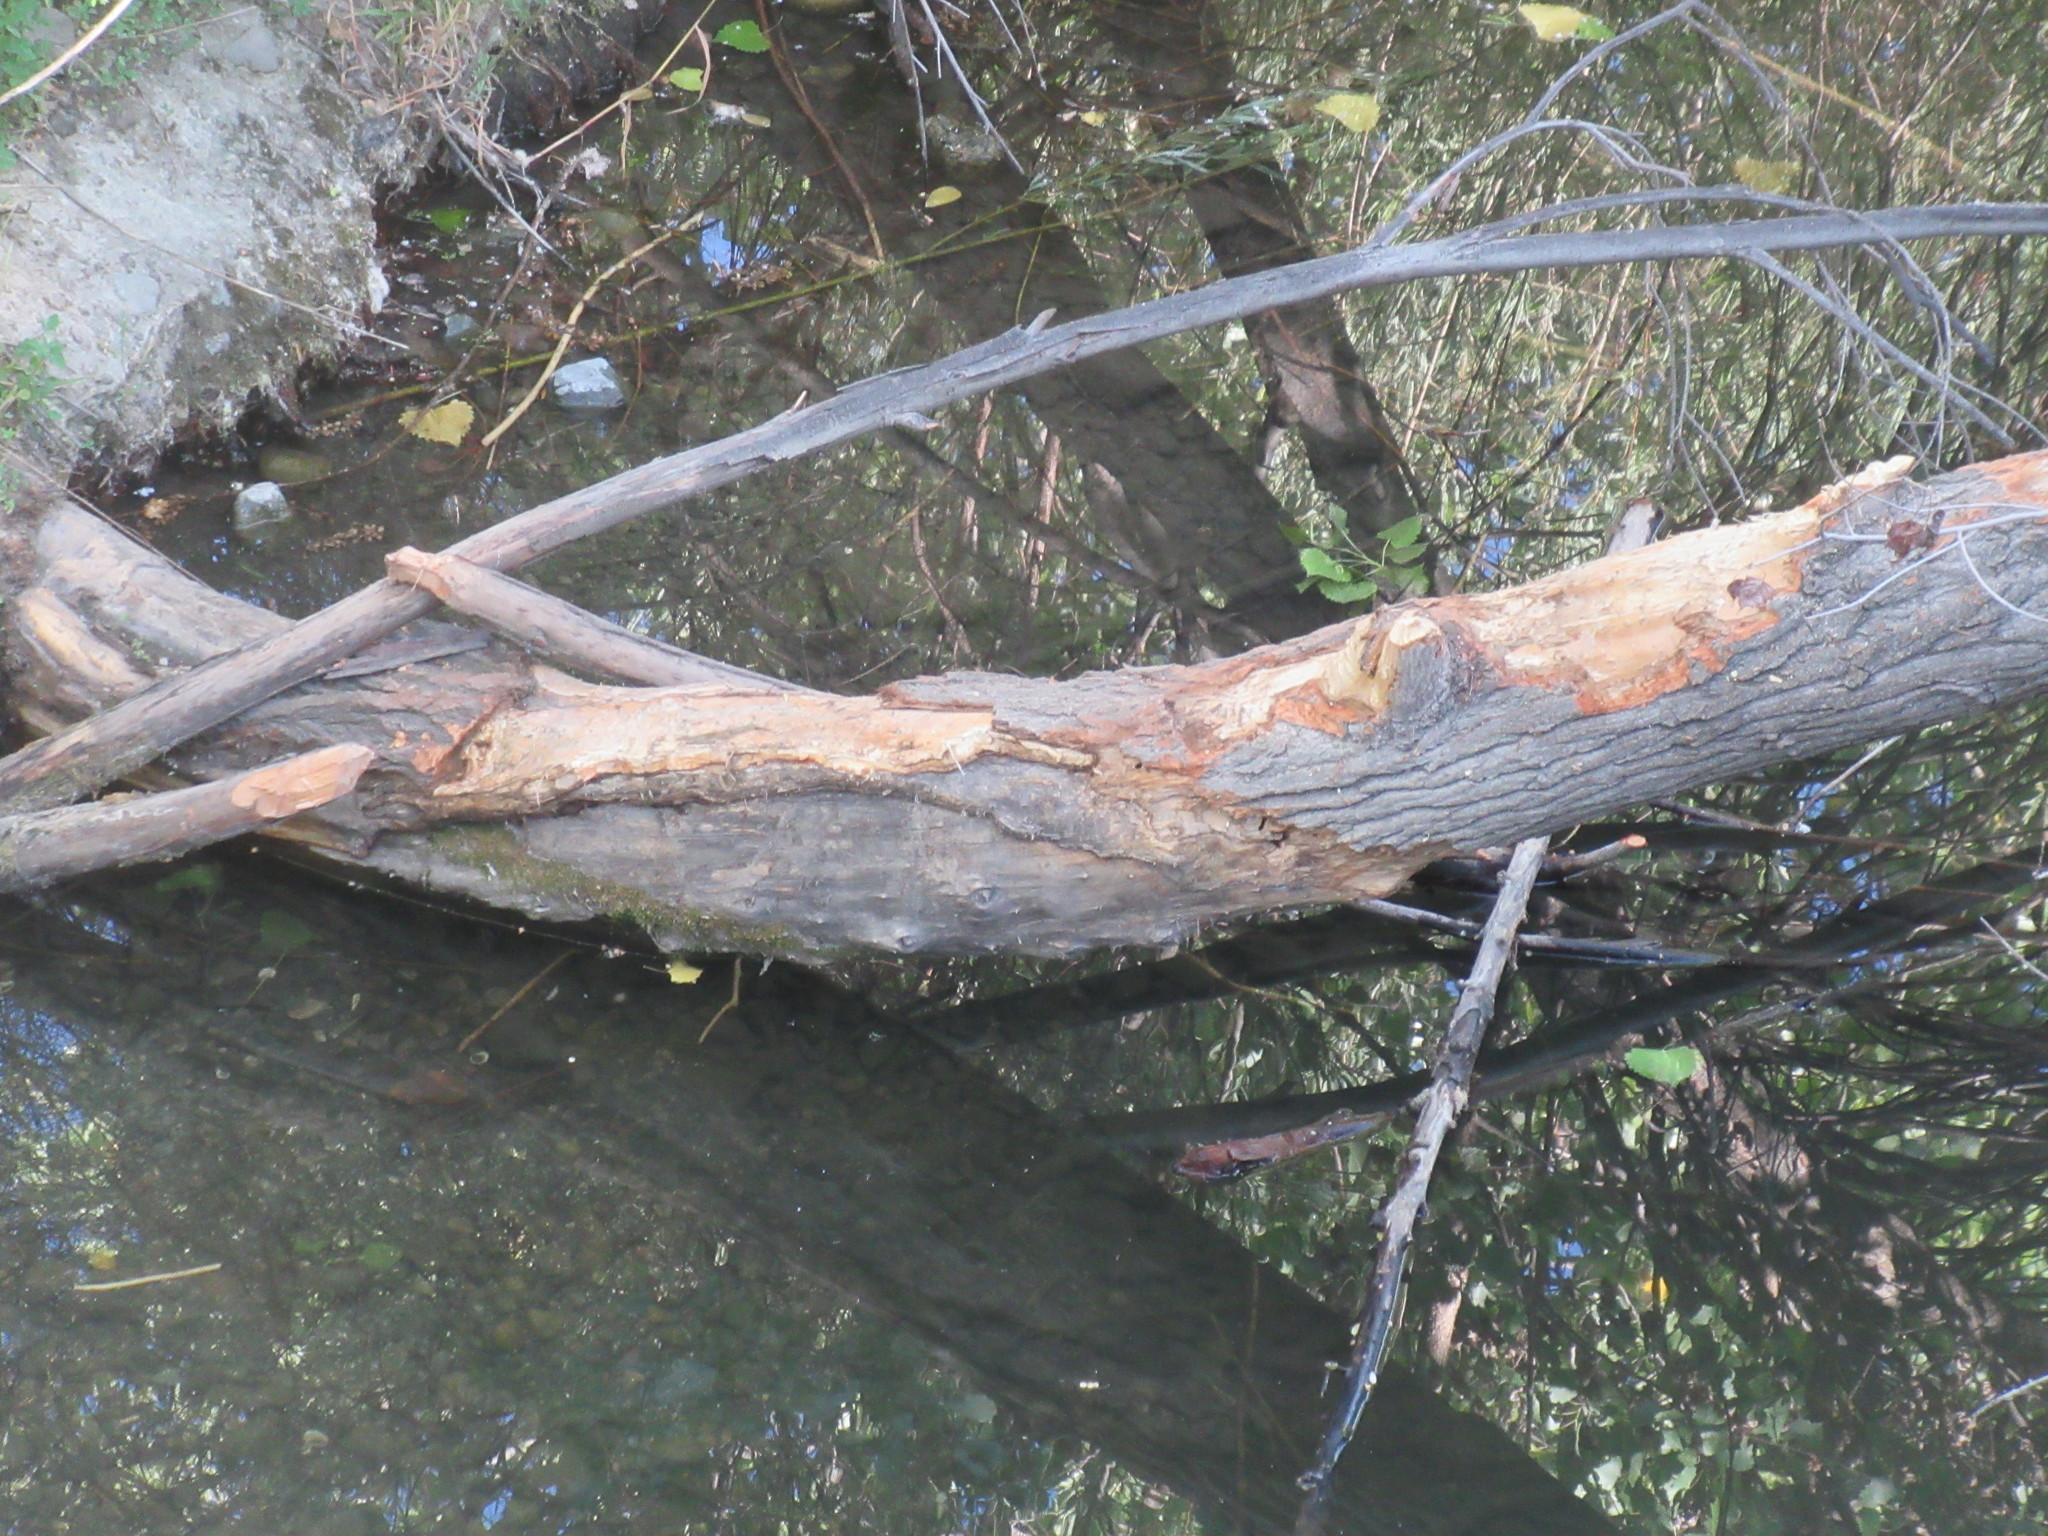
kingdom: Animalia
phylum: Chordata
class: Mammalia
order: Rodentia
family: Castoridae
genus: Castor
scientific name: Castor canadensis
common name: American beaver
